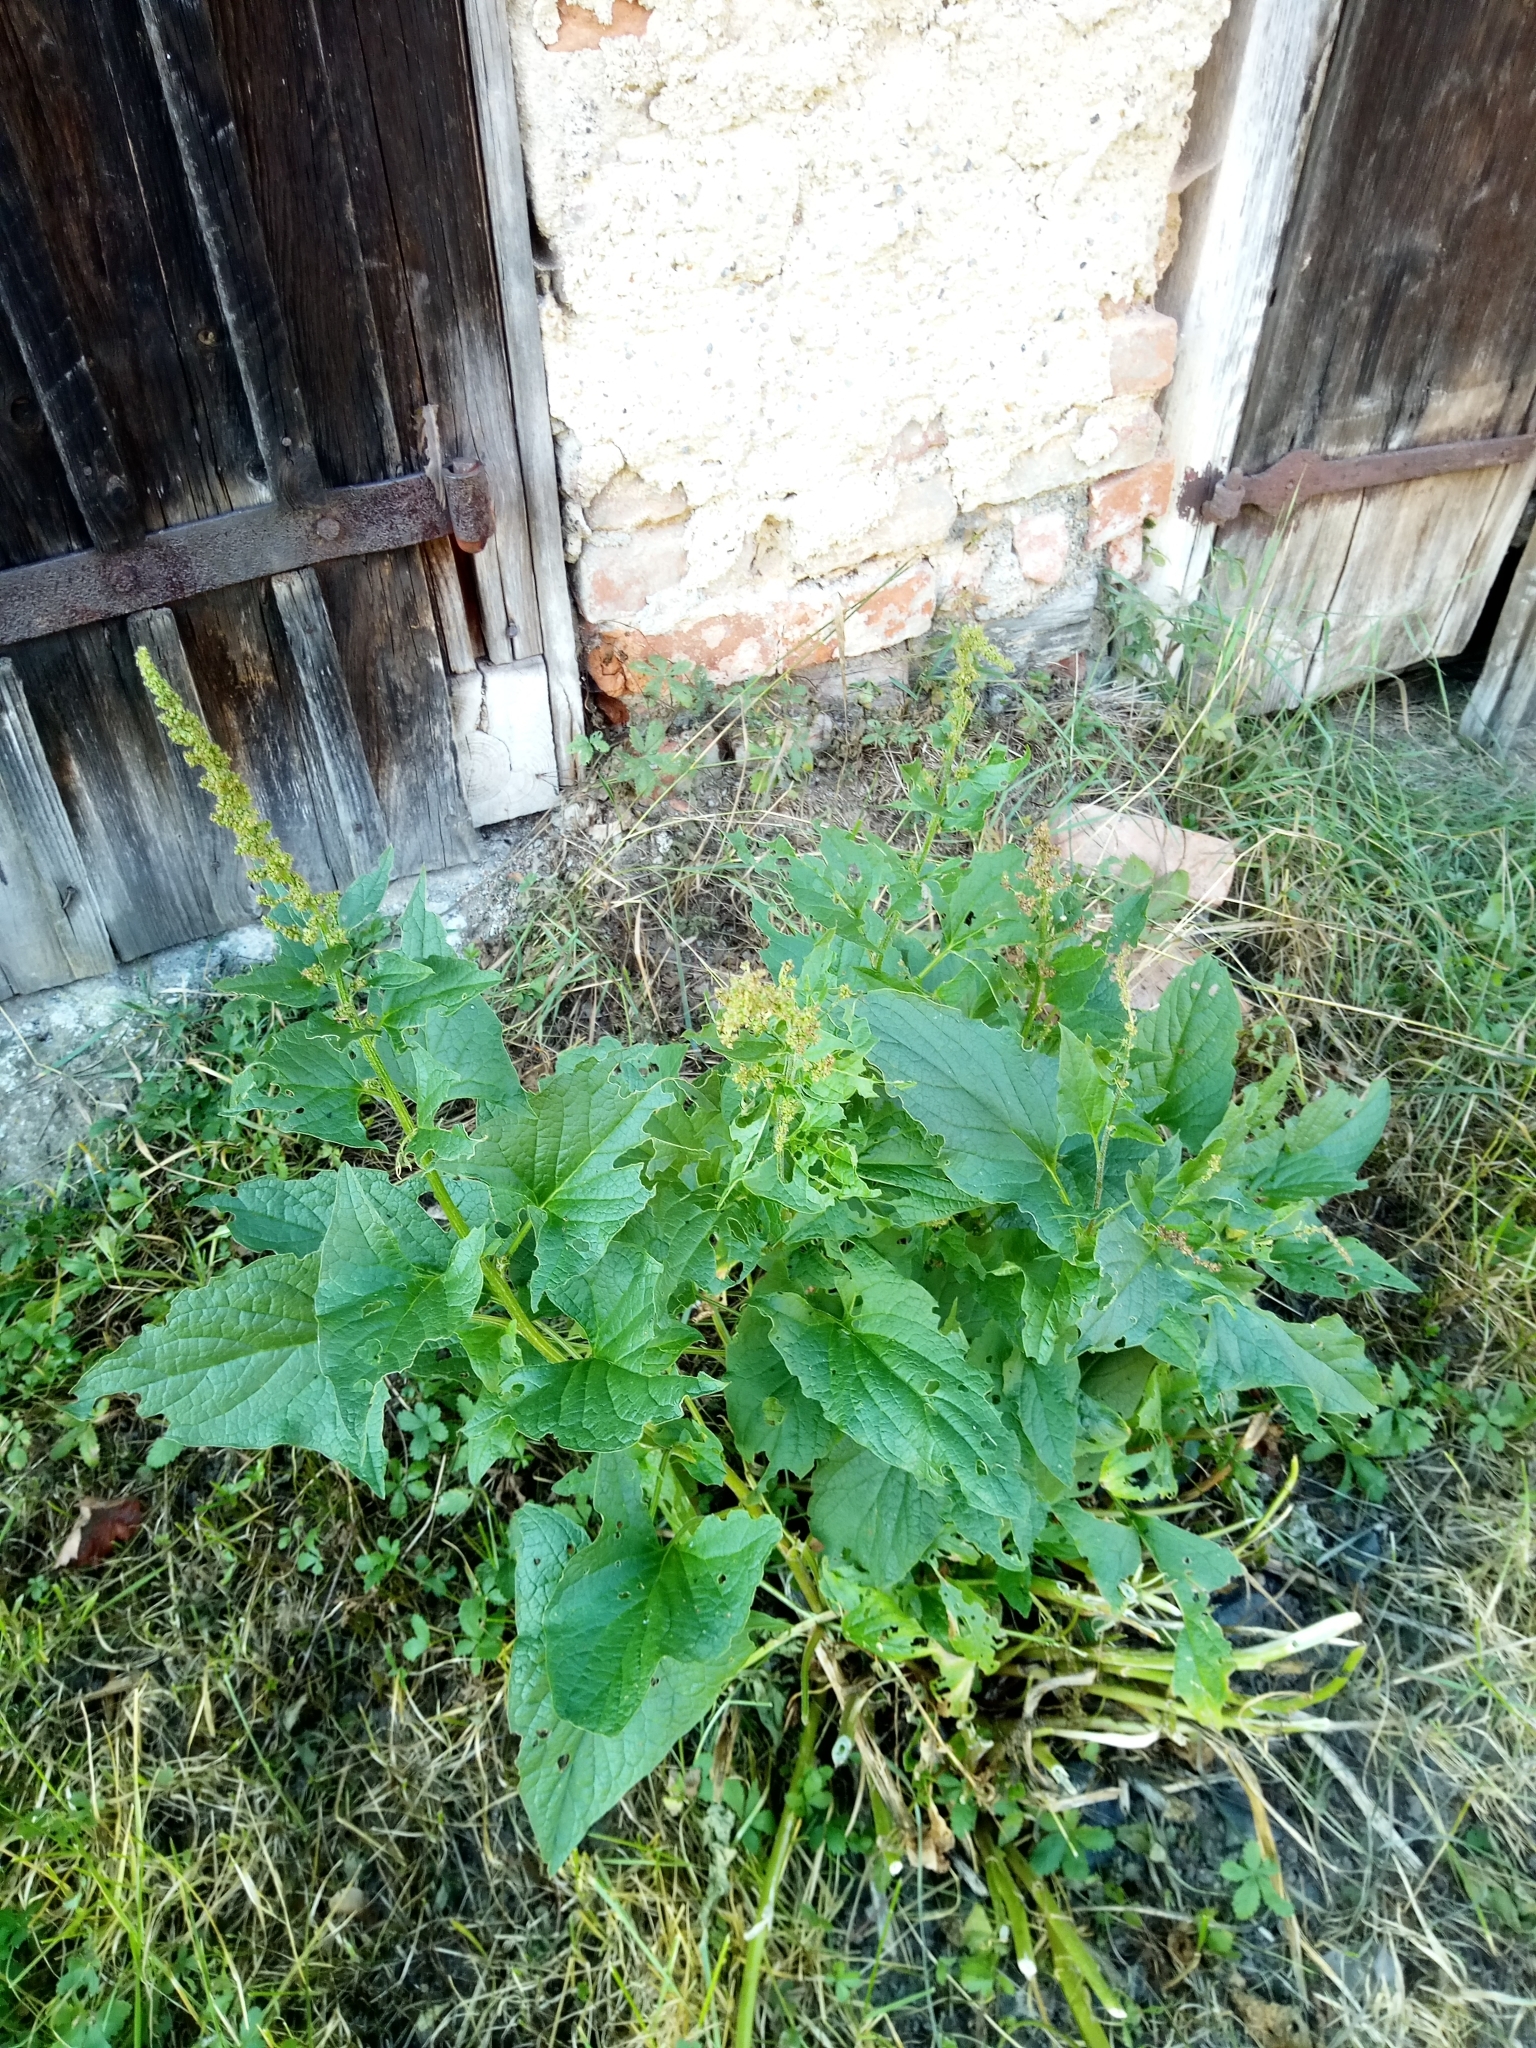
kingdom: Plantae
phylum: Tracheophyta
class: Magnoliopsida
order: Caryophyllales
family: Amaranthaceae
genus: Blitum
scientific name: Blitum bonus-henricus
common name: Good king henry
